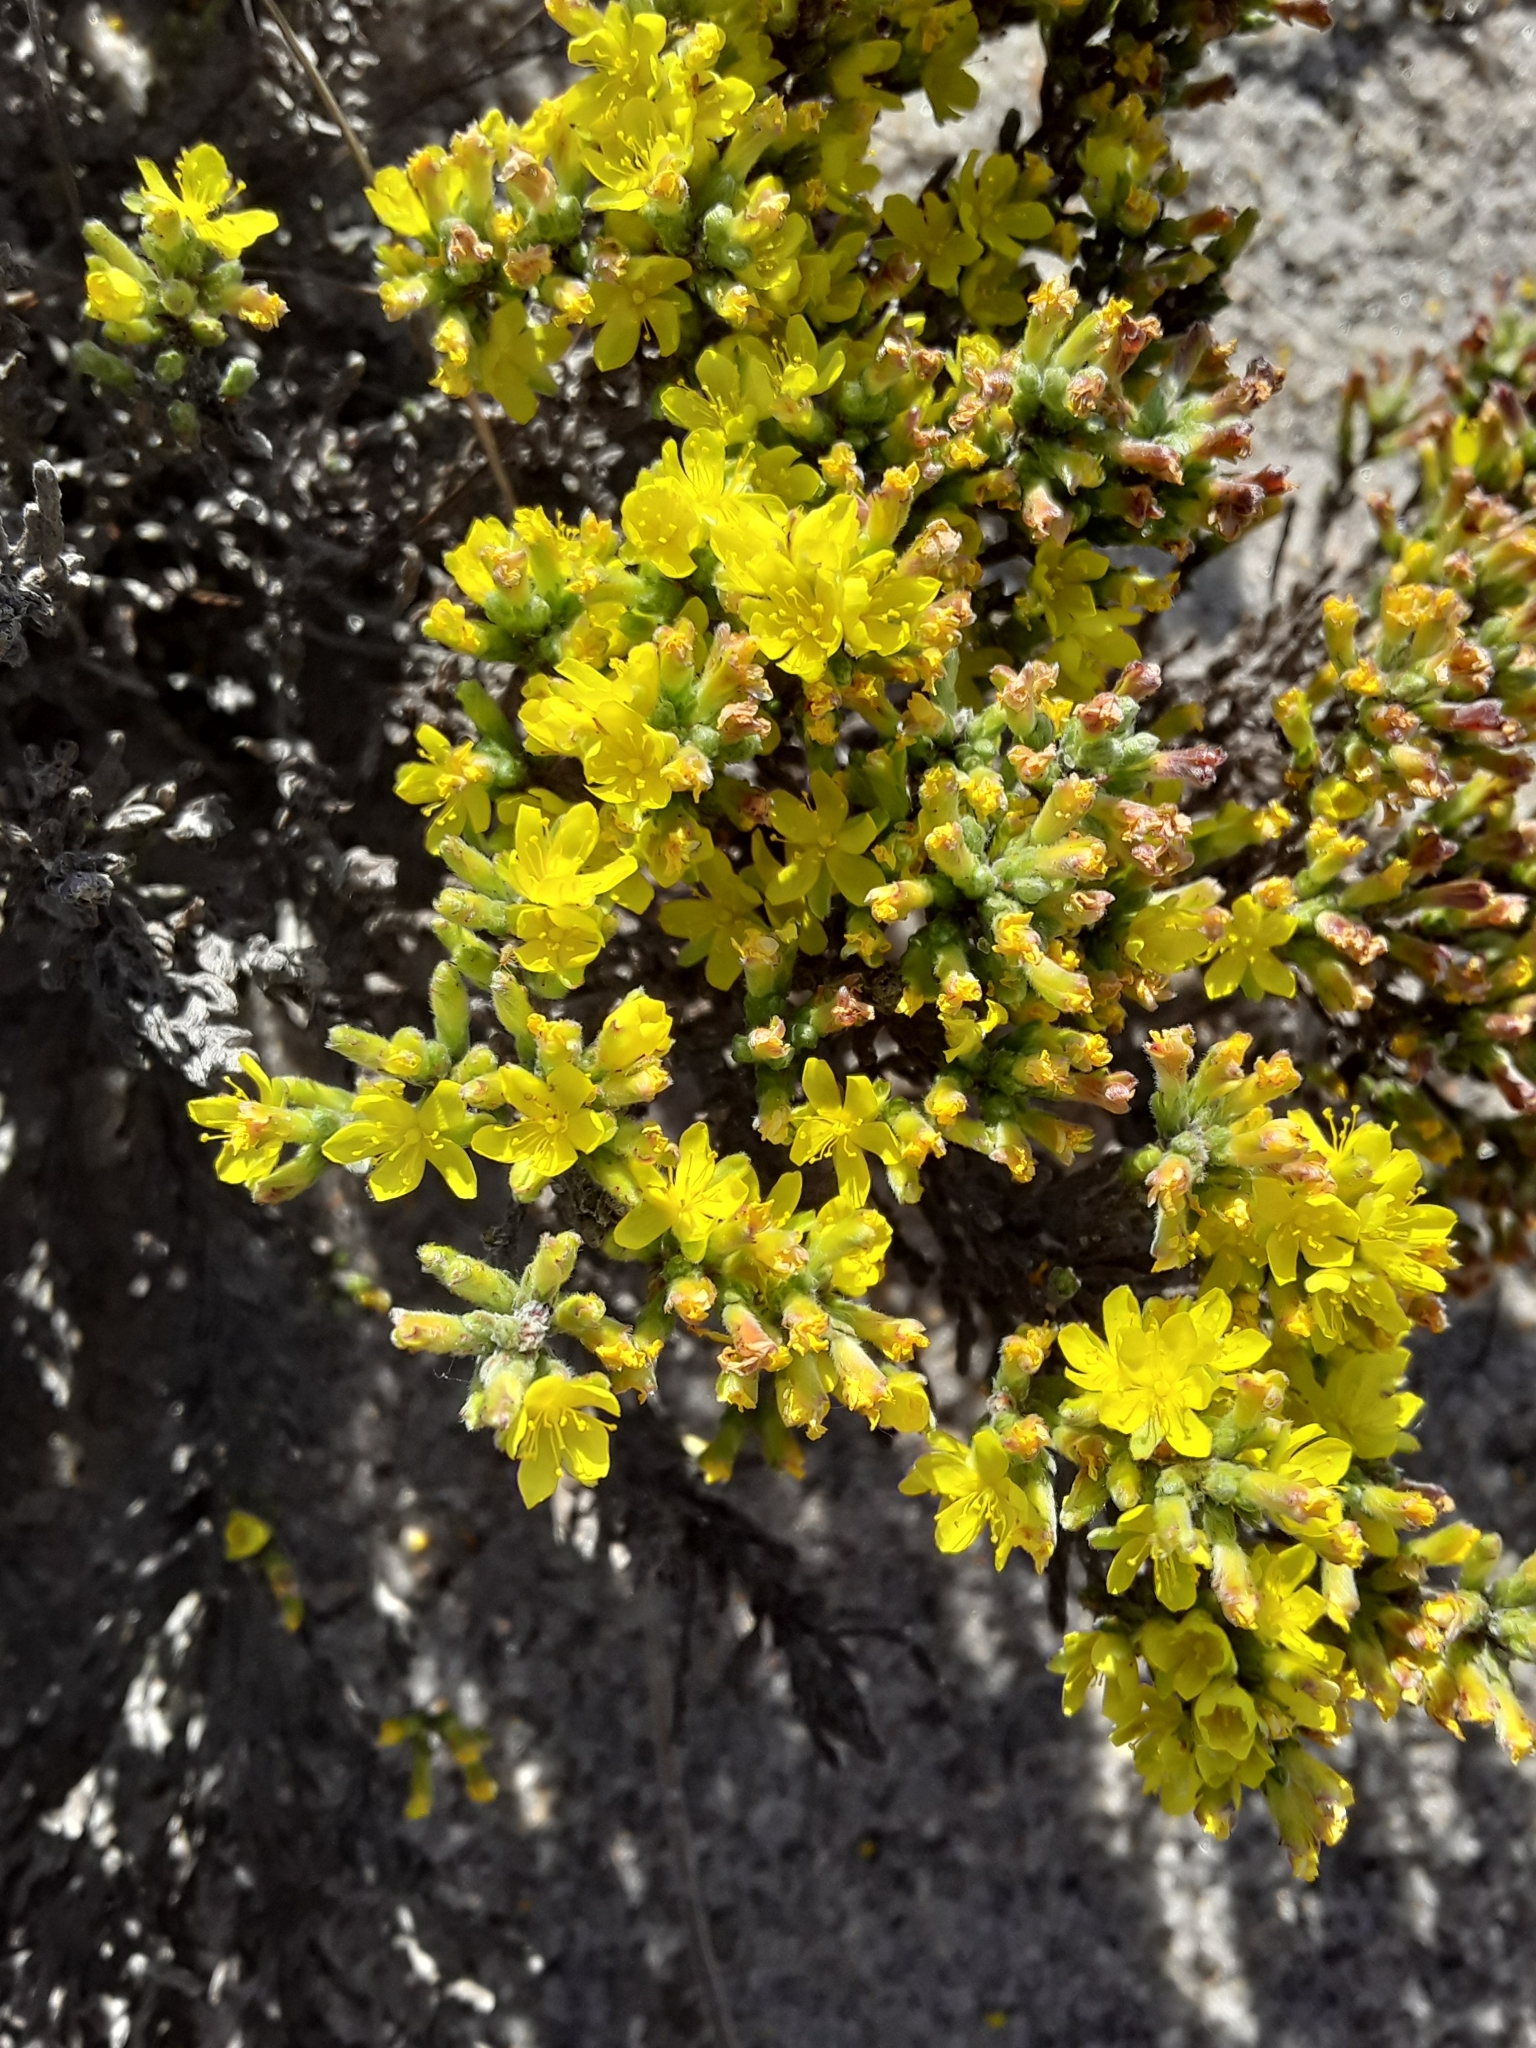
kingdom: Plantae
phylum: Tracheophyta
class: Magnoliopsida
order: Malvales
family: Cistaceae
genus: Hudsonia
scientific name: Hudsonia tomentosa
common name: Beach-heath
